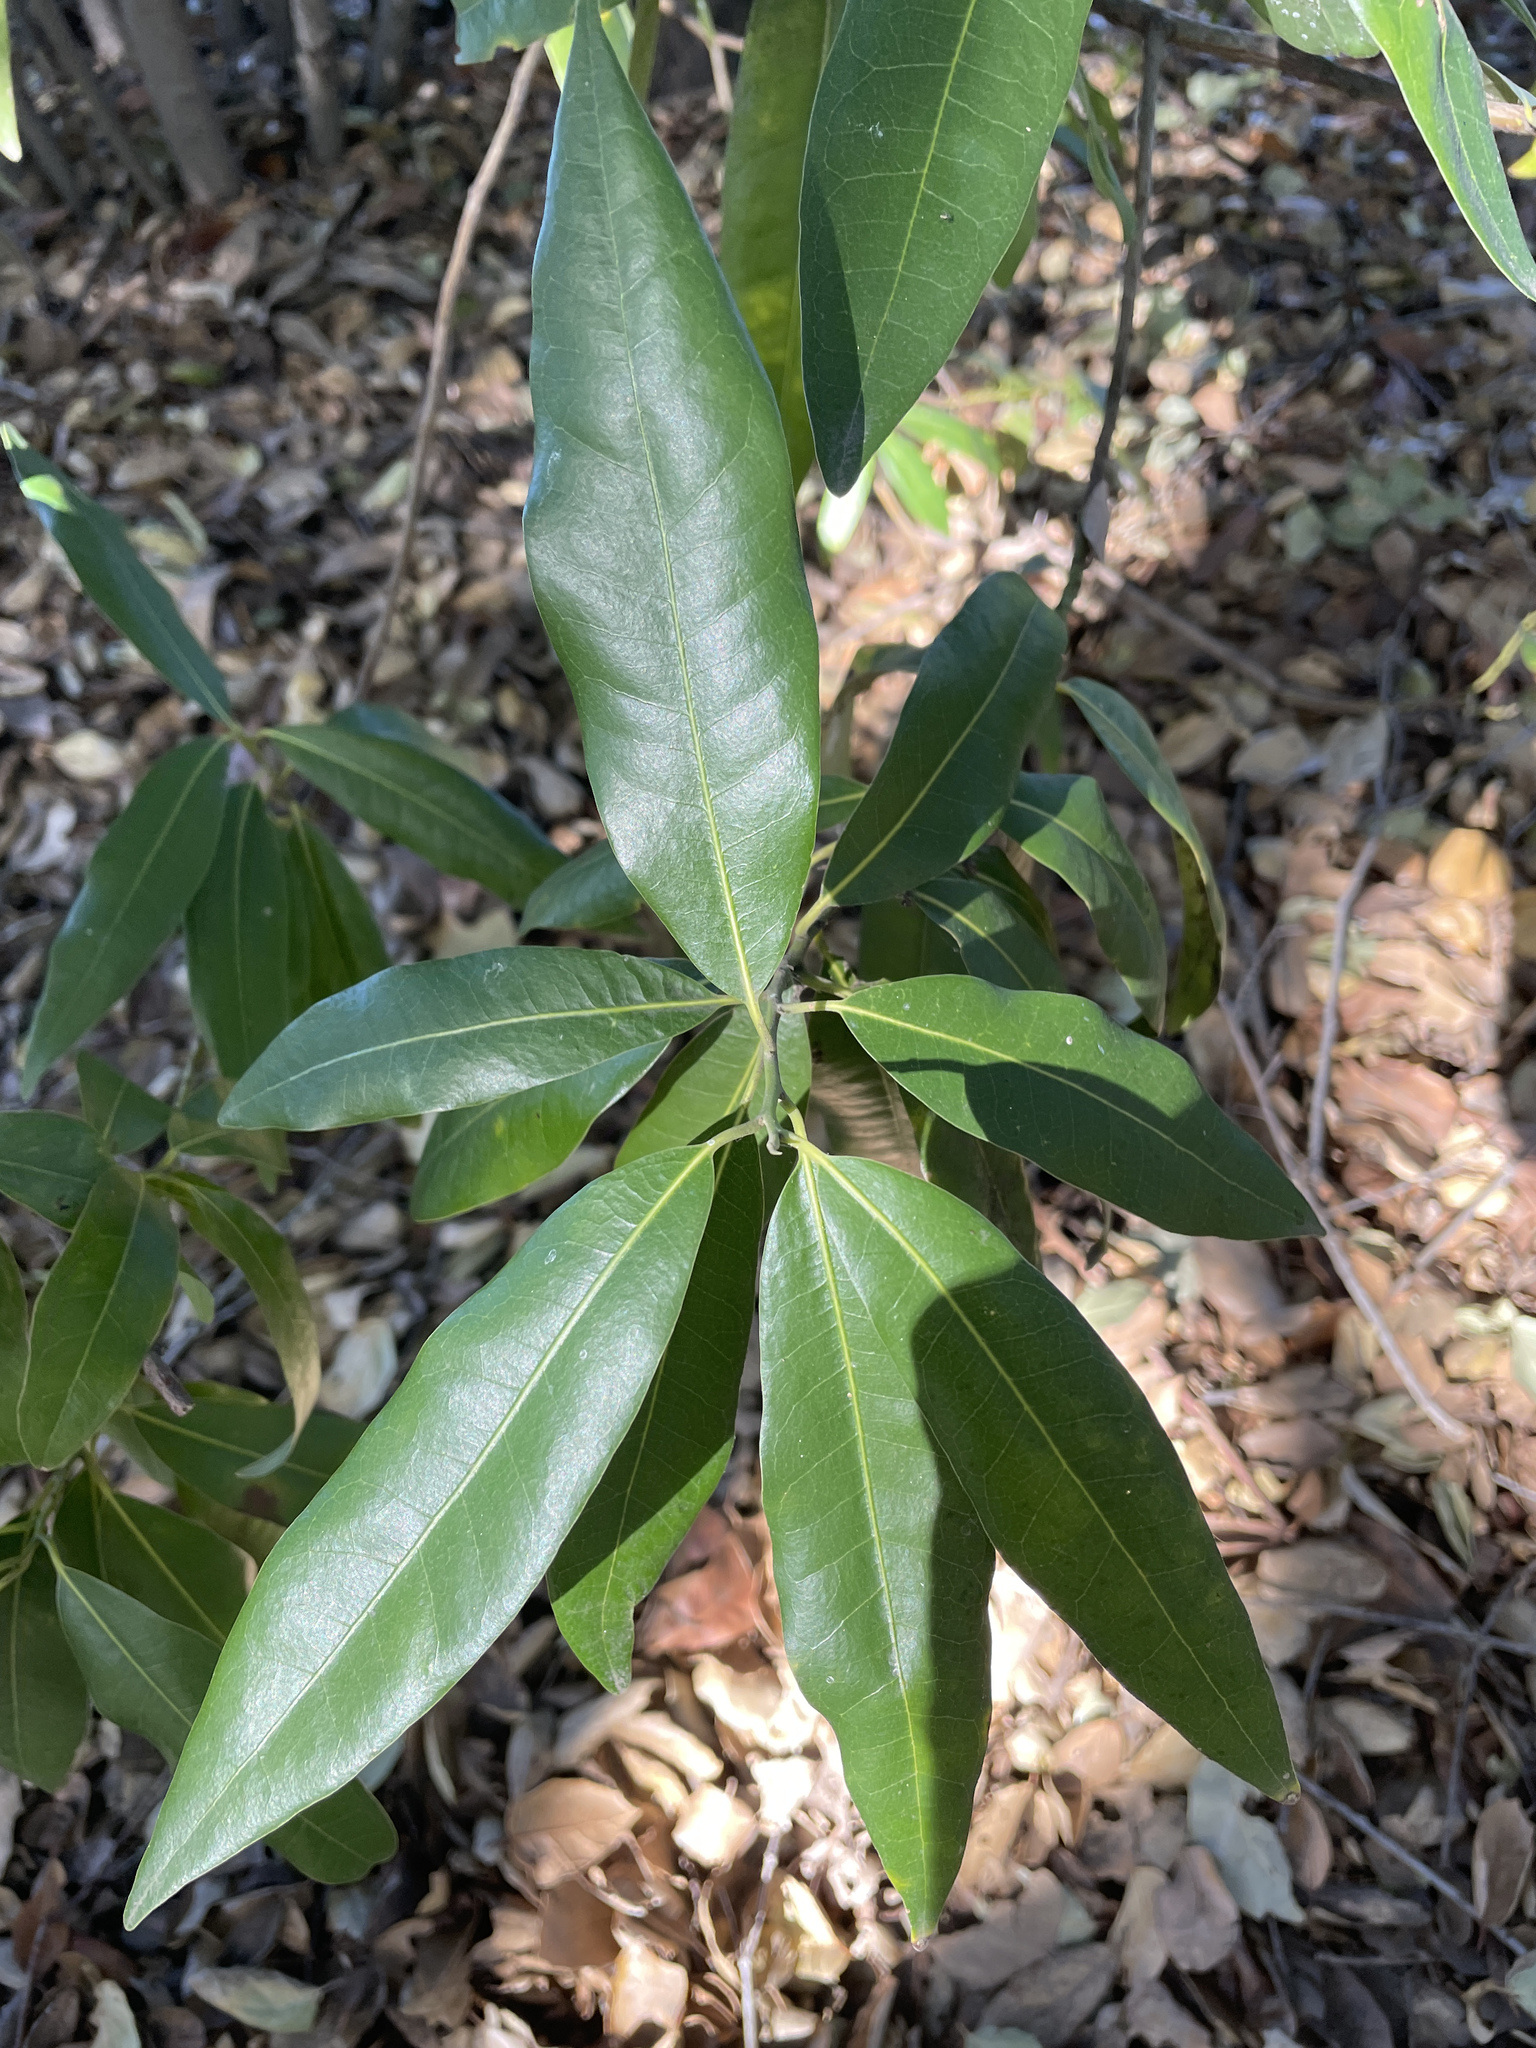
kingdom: Plantae
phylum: Tracheophyta
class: Magnoliopsida
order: Laurales
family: Lauraceae
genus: Umbellularia
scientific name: Umbellularia californica
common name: California bay
